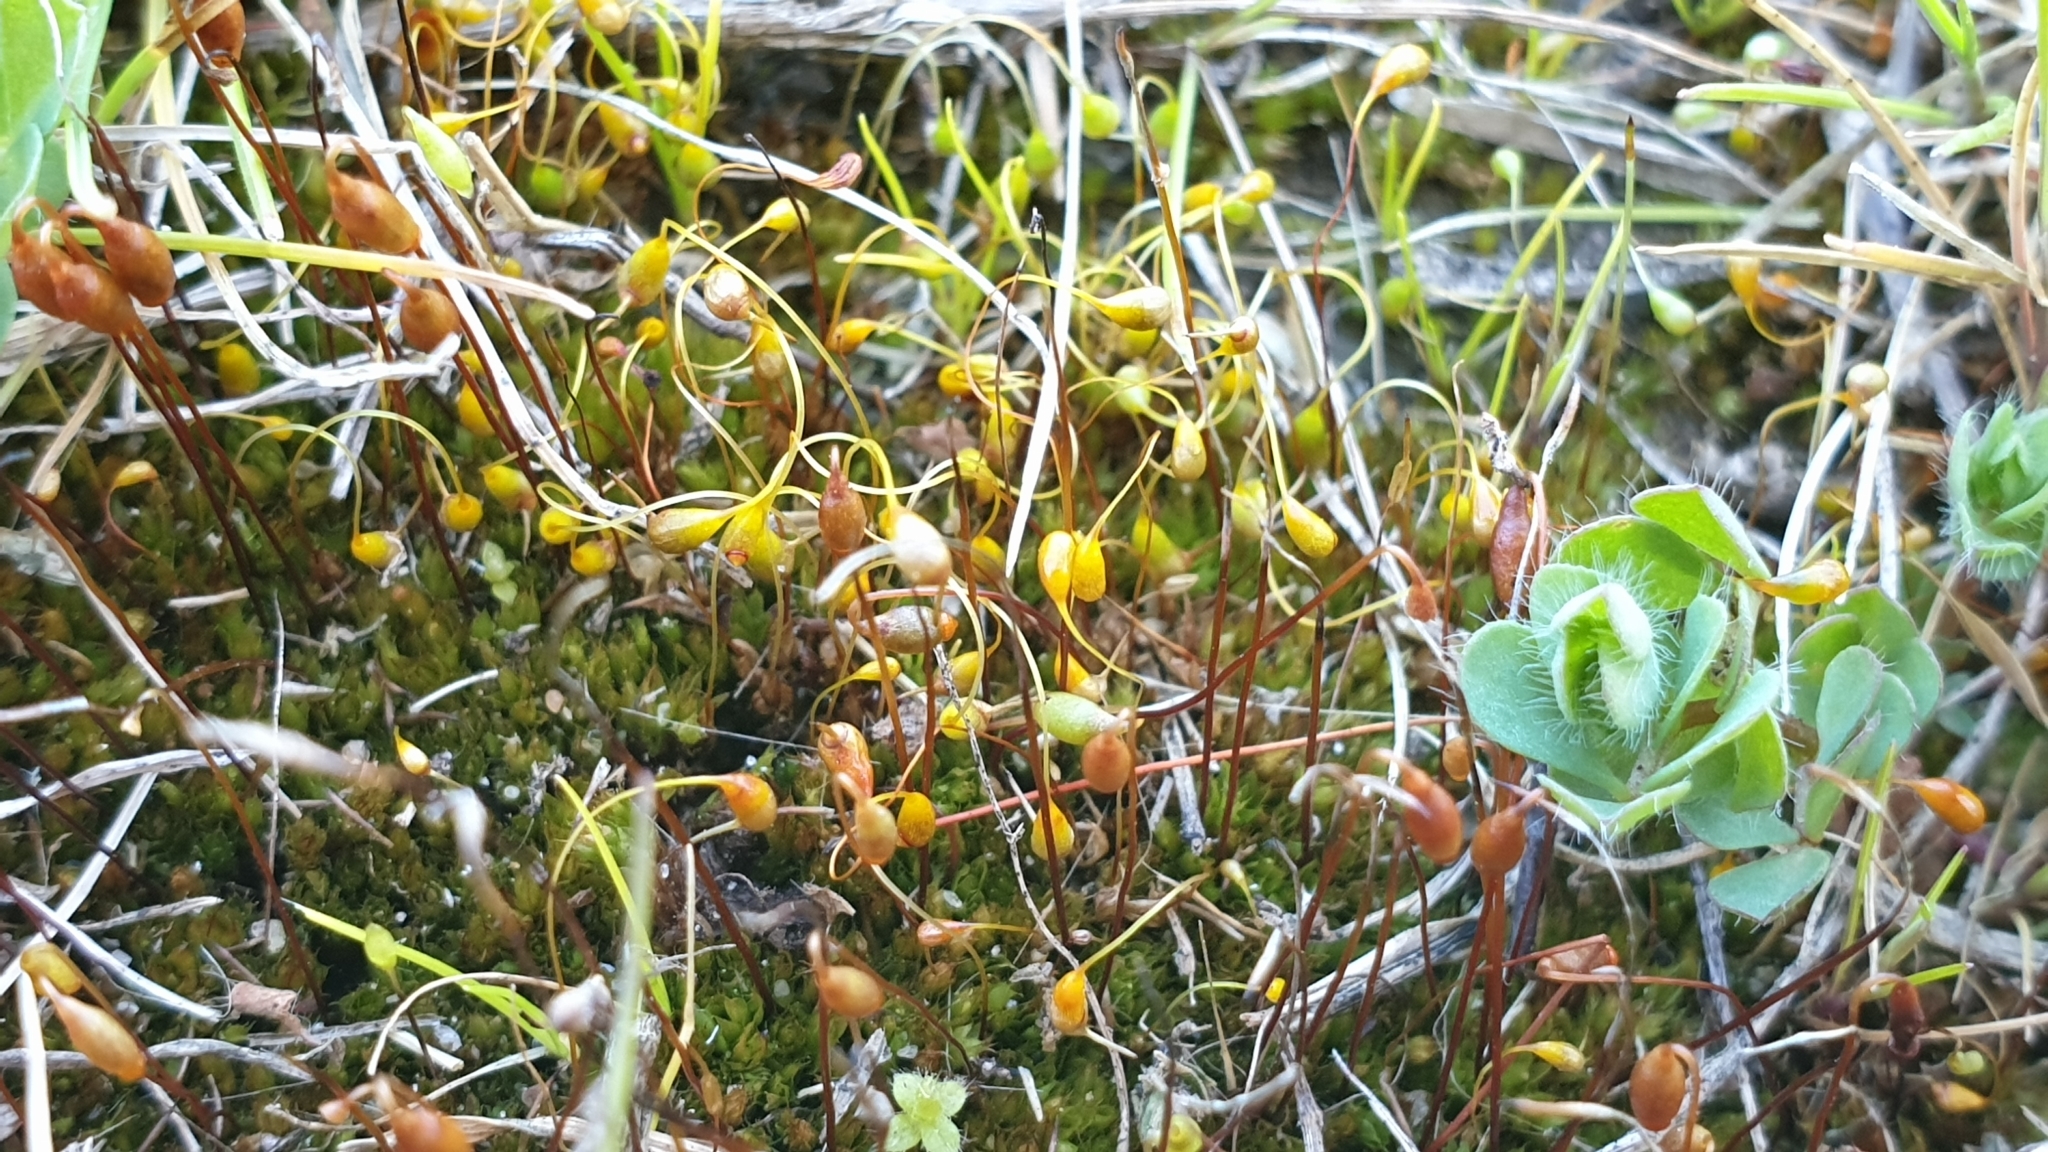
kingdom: Plantae
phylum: Bryophyta
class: Bryopsida
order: Funariales
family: Funariaceae
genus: Funaria
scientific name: Funaria hygrometrica
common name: Common cord moss
